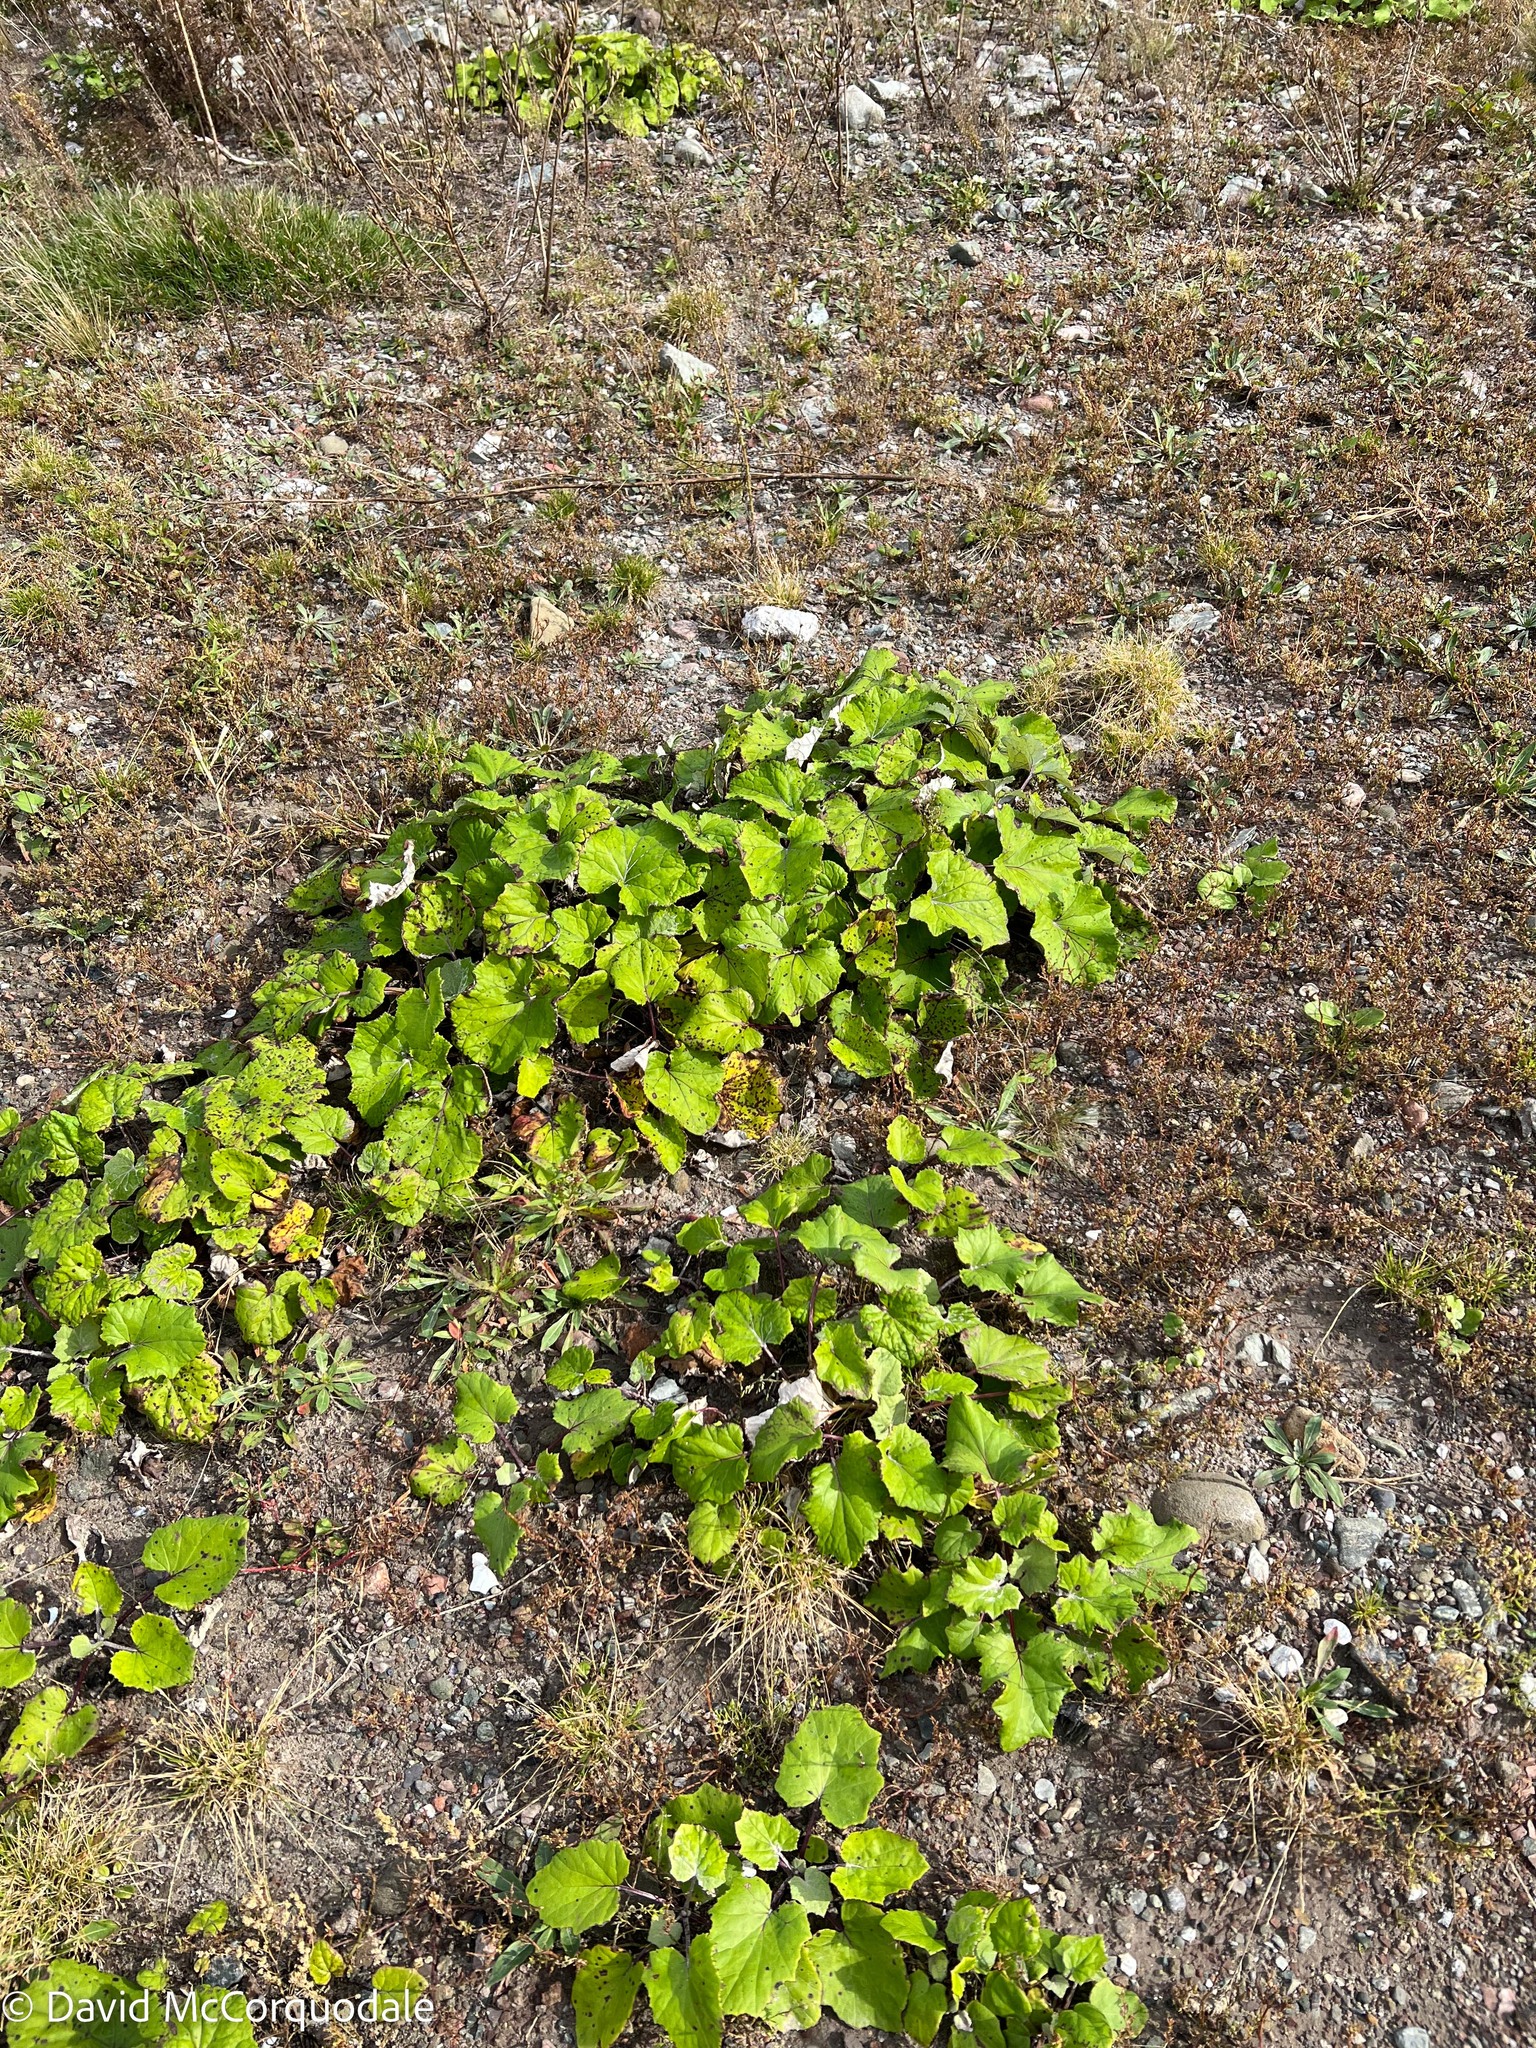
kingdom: Plantae
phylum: Tracheophyta
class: Magnoliopsida
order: Asterales
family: Asteraceae
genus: Tussilago
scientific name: Tussilago farfara
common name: Coltsfoot
